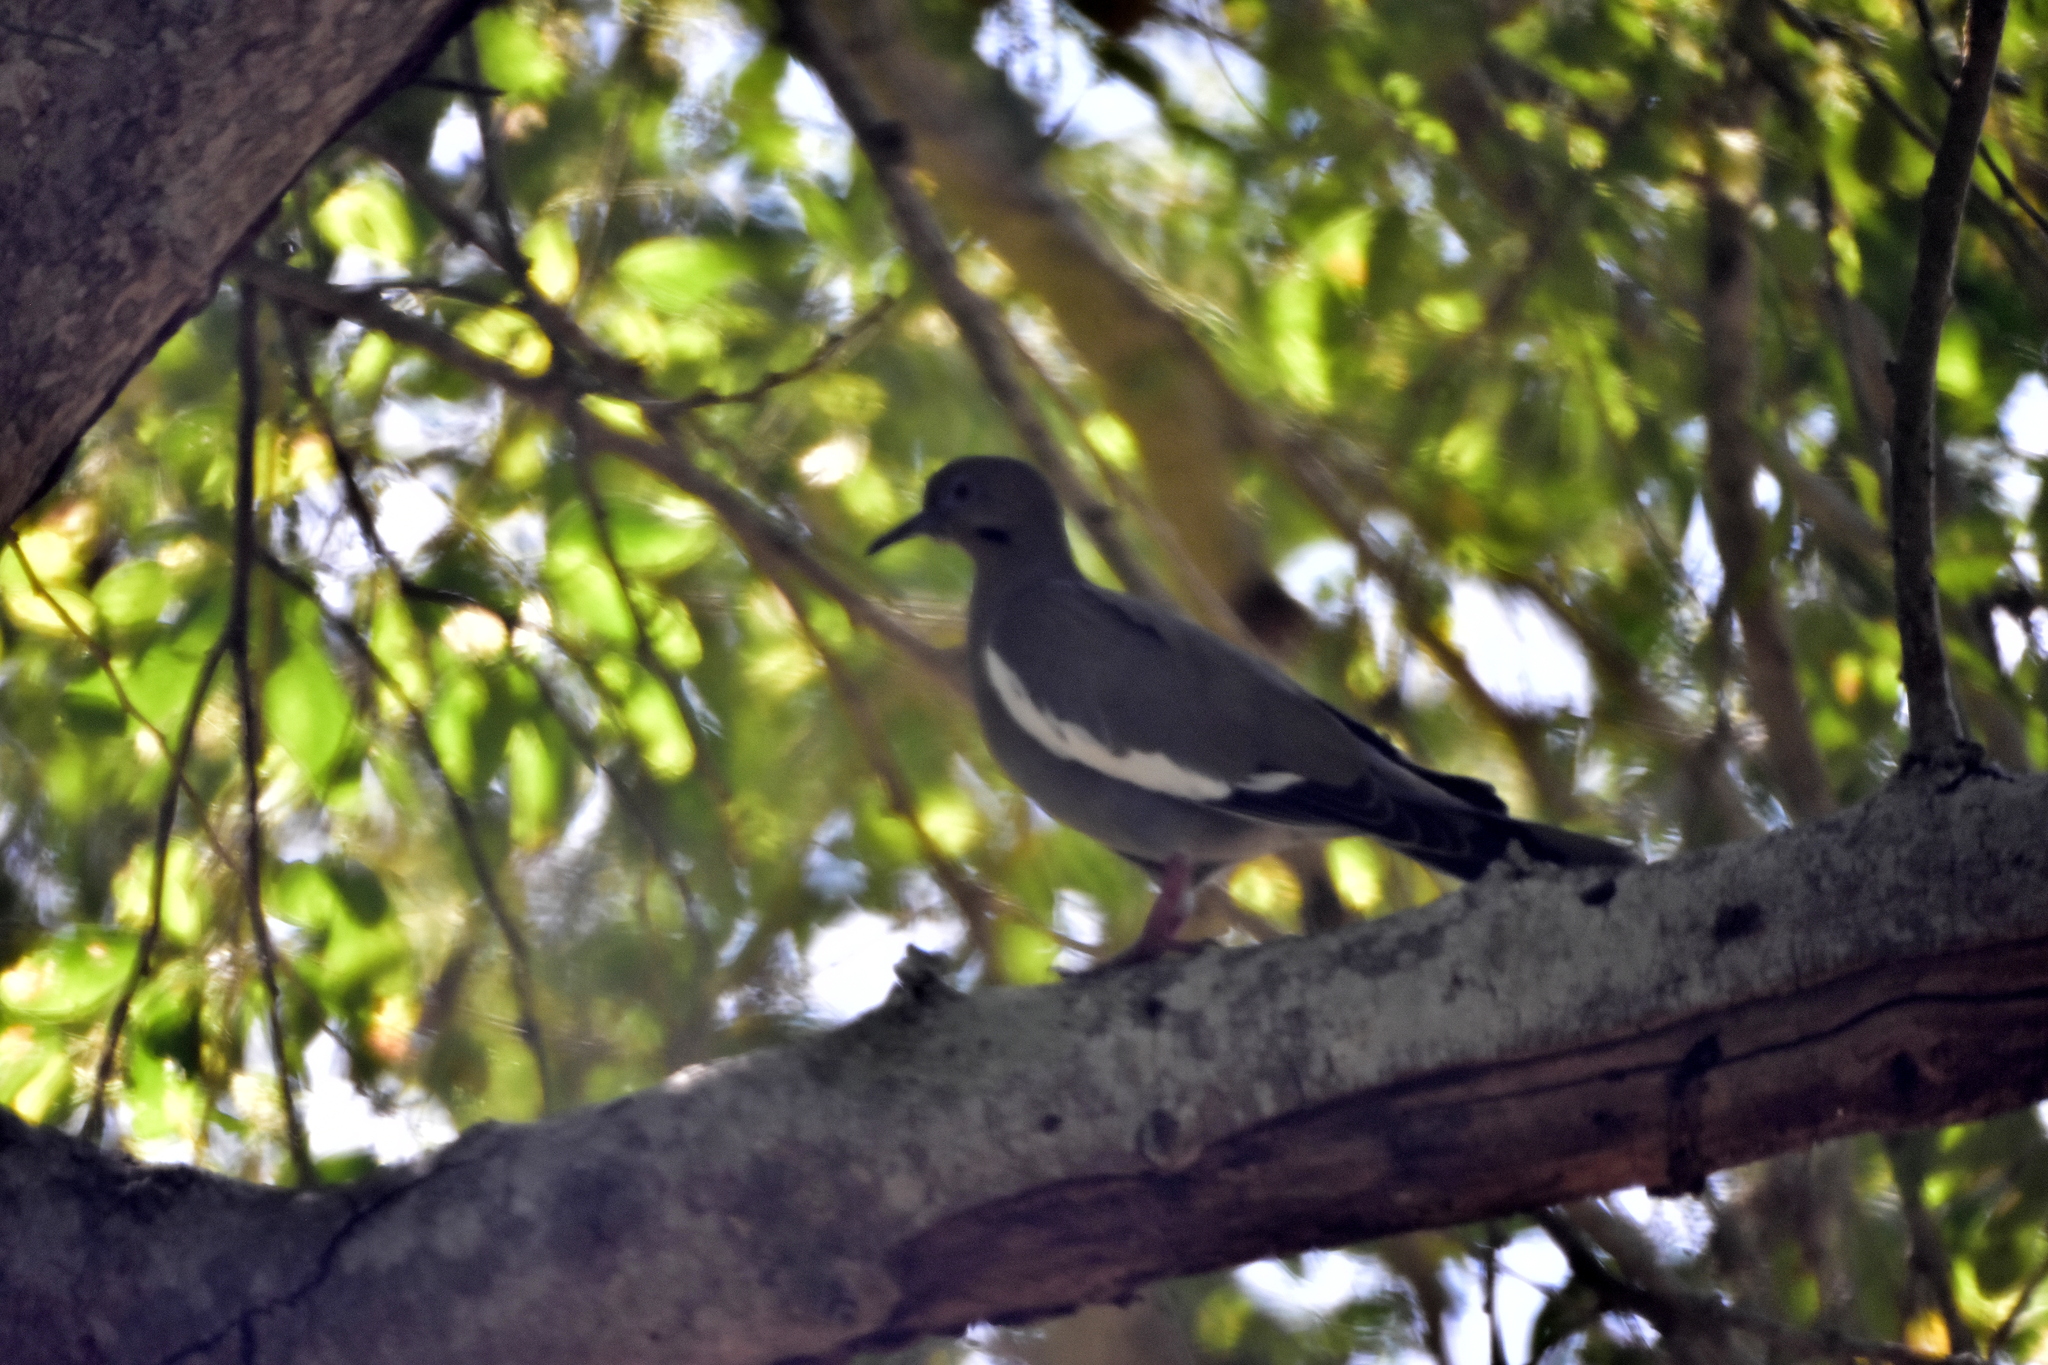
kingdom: Animalia
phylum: Chordata
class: Aves
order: Columbiformes
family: Columbidae
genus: Zenaida
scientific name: Zenaida asiatica
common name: White-winged dove
